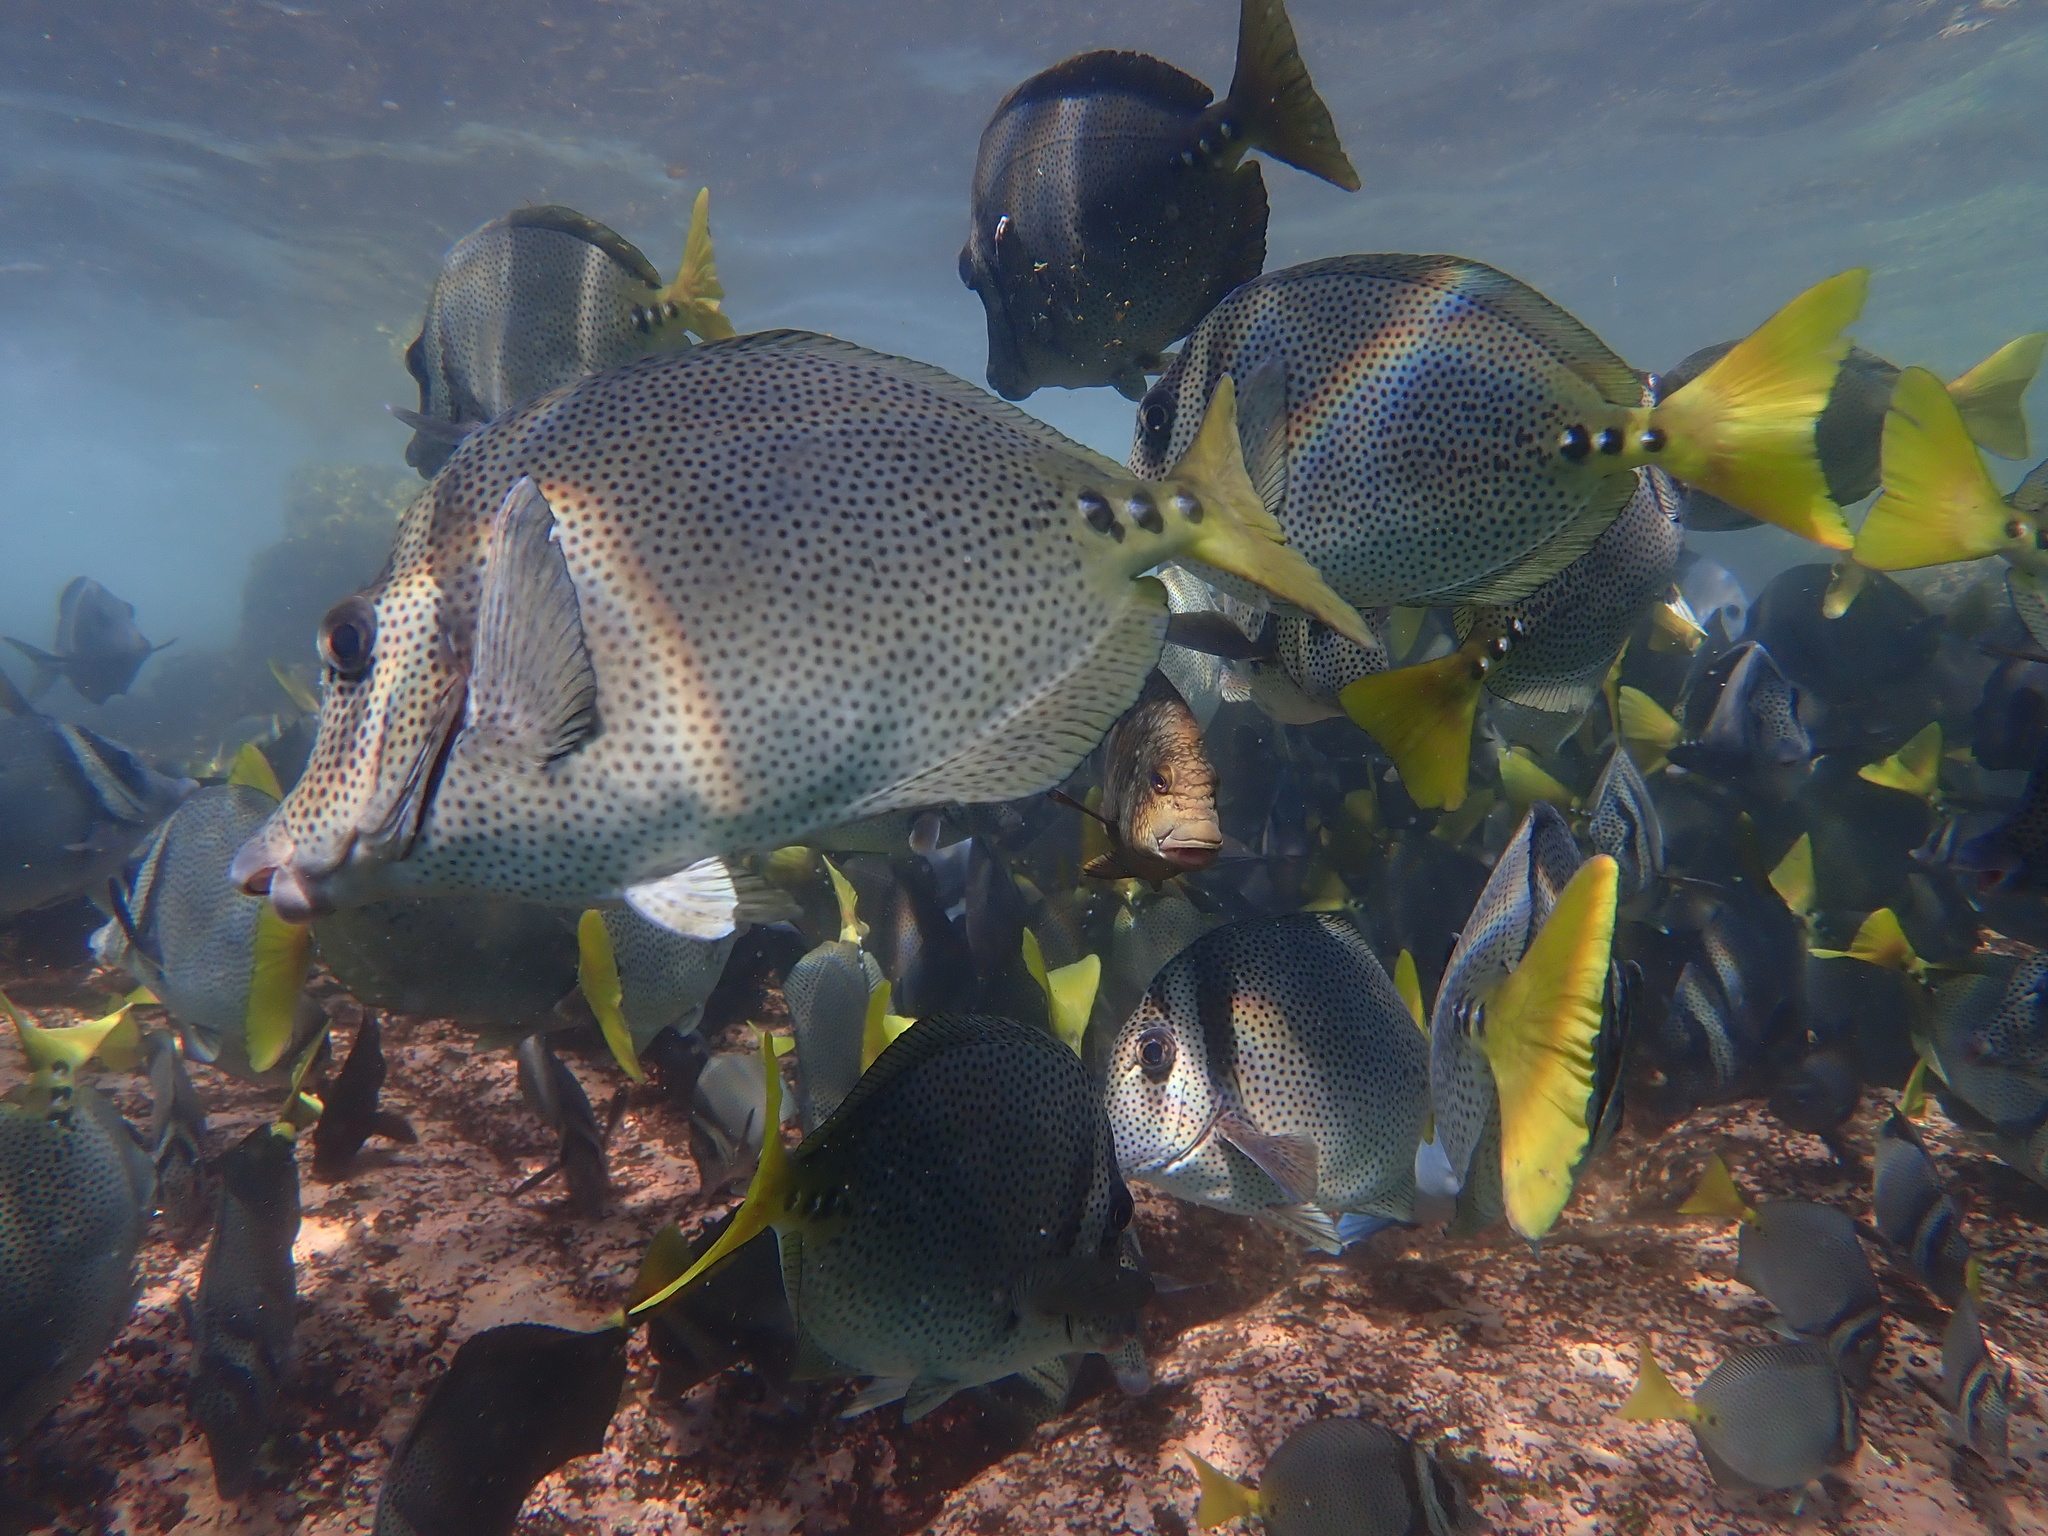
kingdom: Animalia
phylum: Chordata
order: Perciformes
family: Acanthuridae
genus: Prionurus
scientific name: Prionurus laticlavius
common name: Razor surgeonfish
